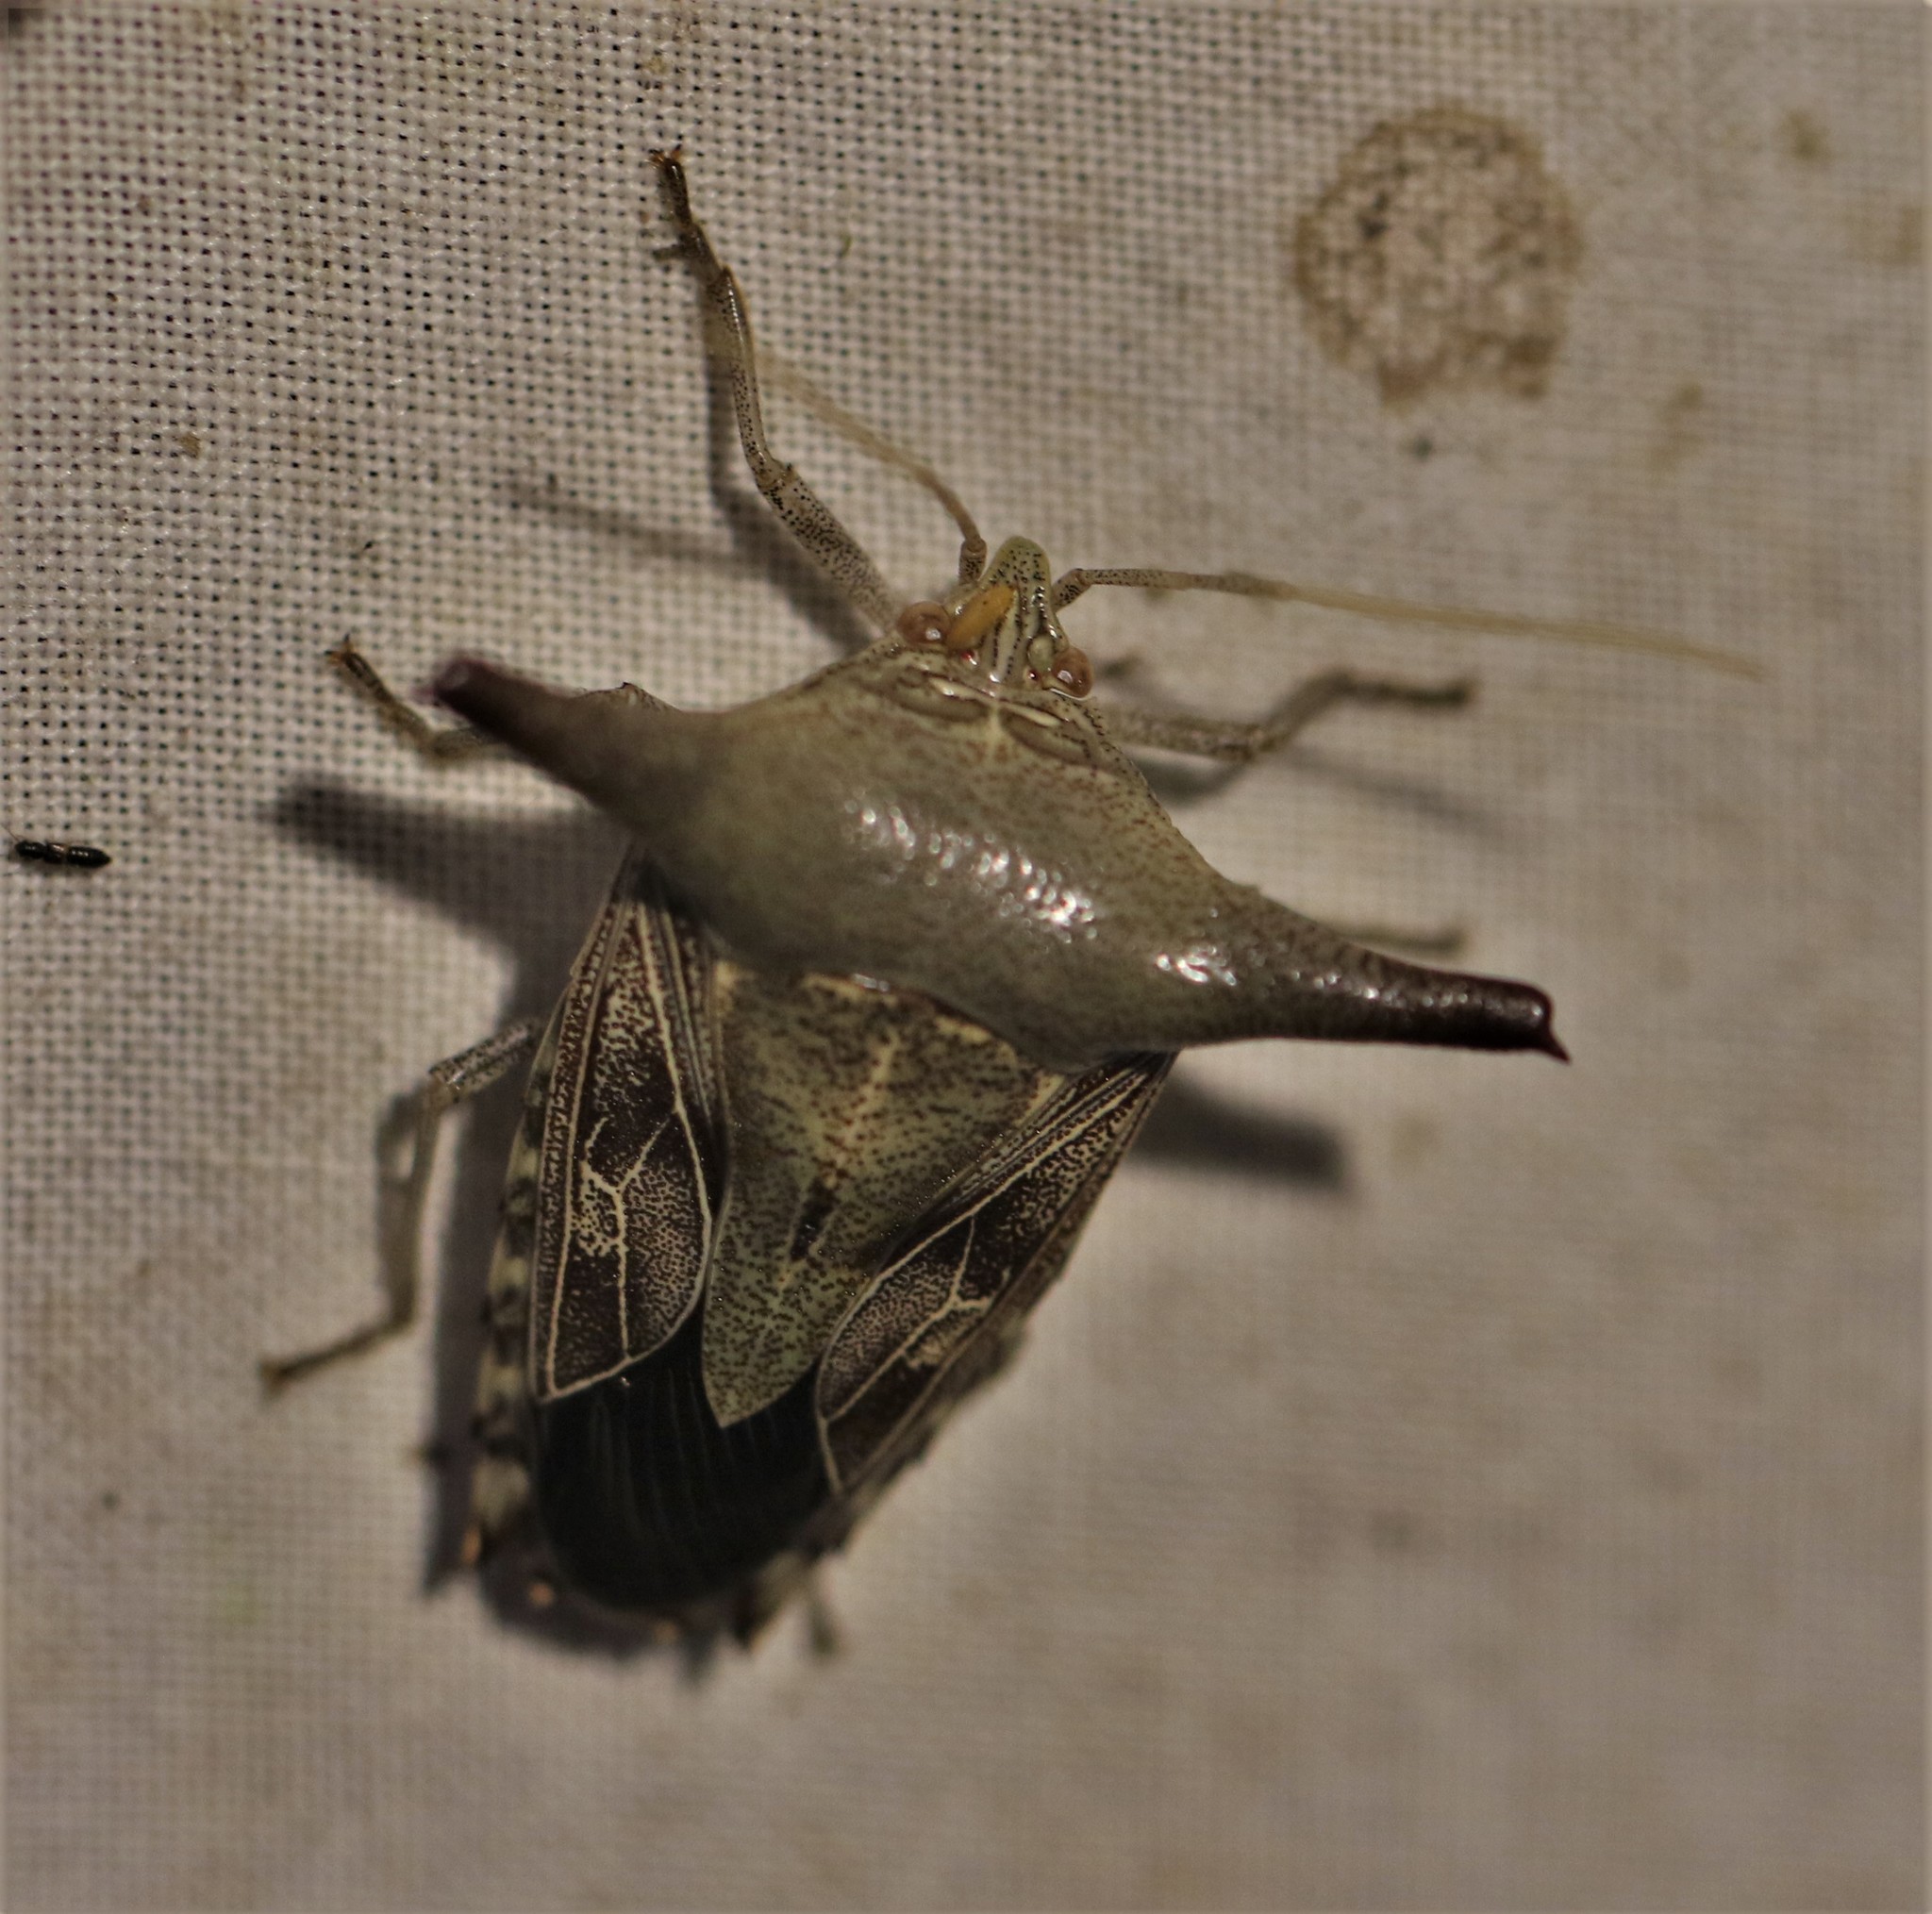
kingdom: Animalia
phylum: Arthropoda
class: Insecta
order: Hemiptera
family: Pentatomidae
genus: Edessa
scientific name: Edessa laticornis
